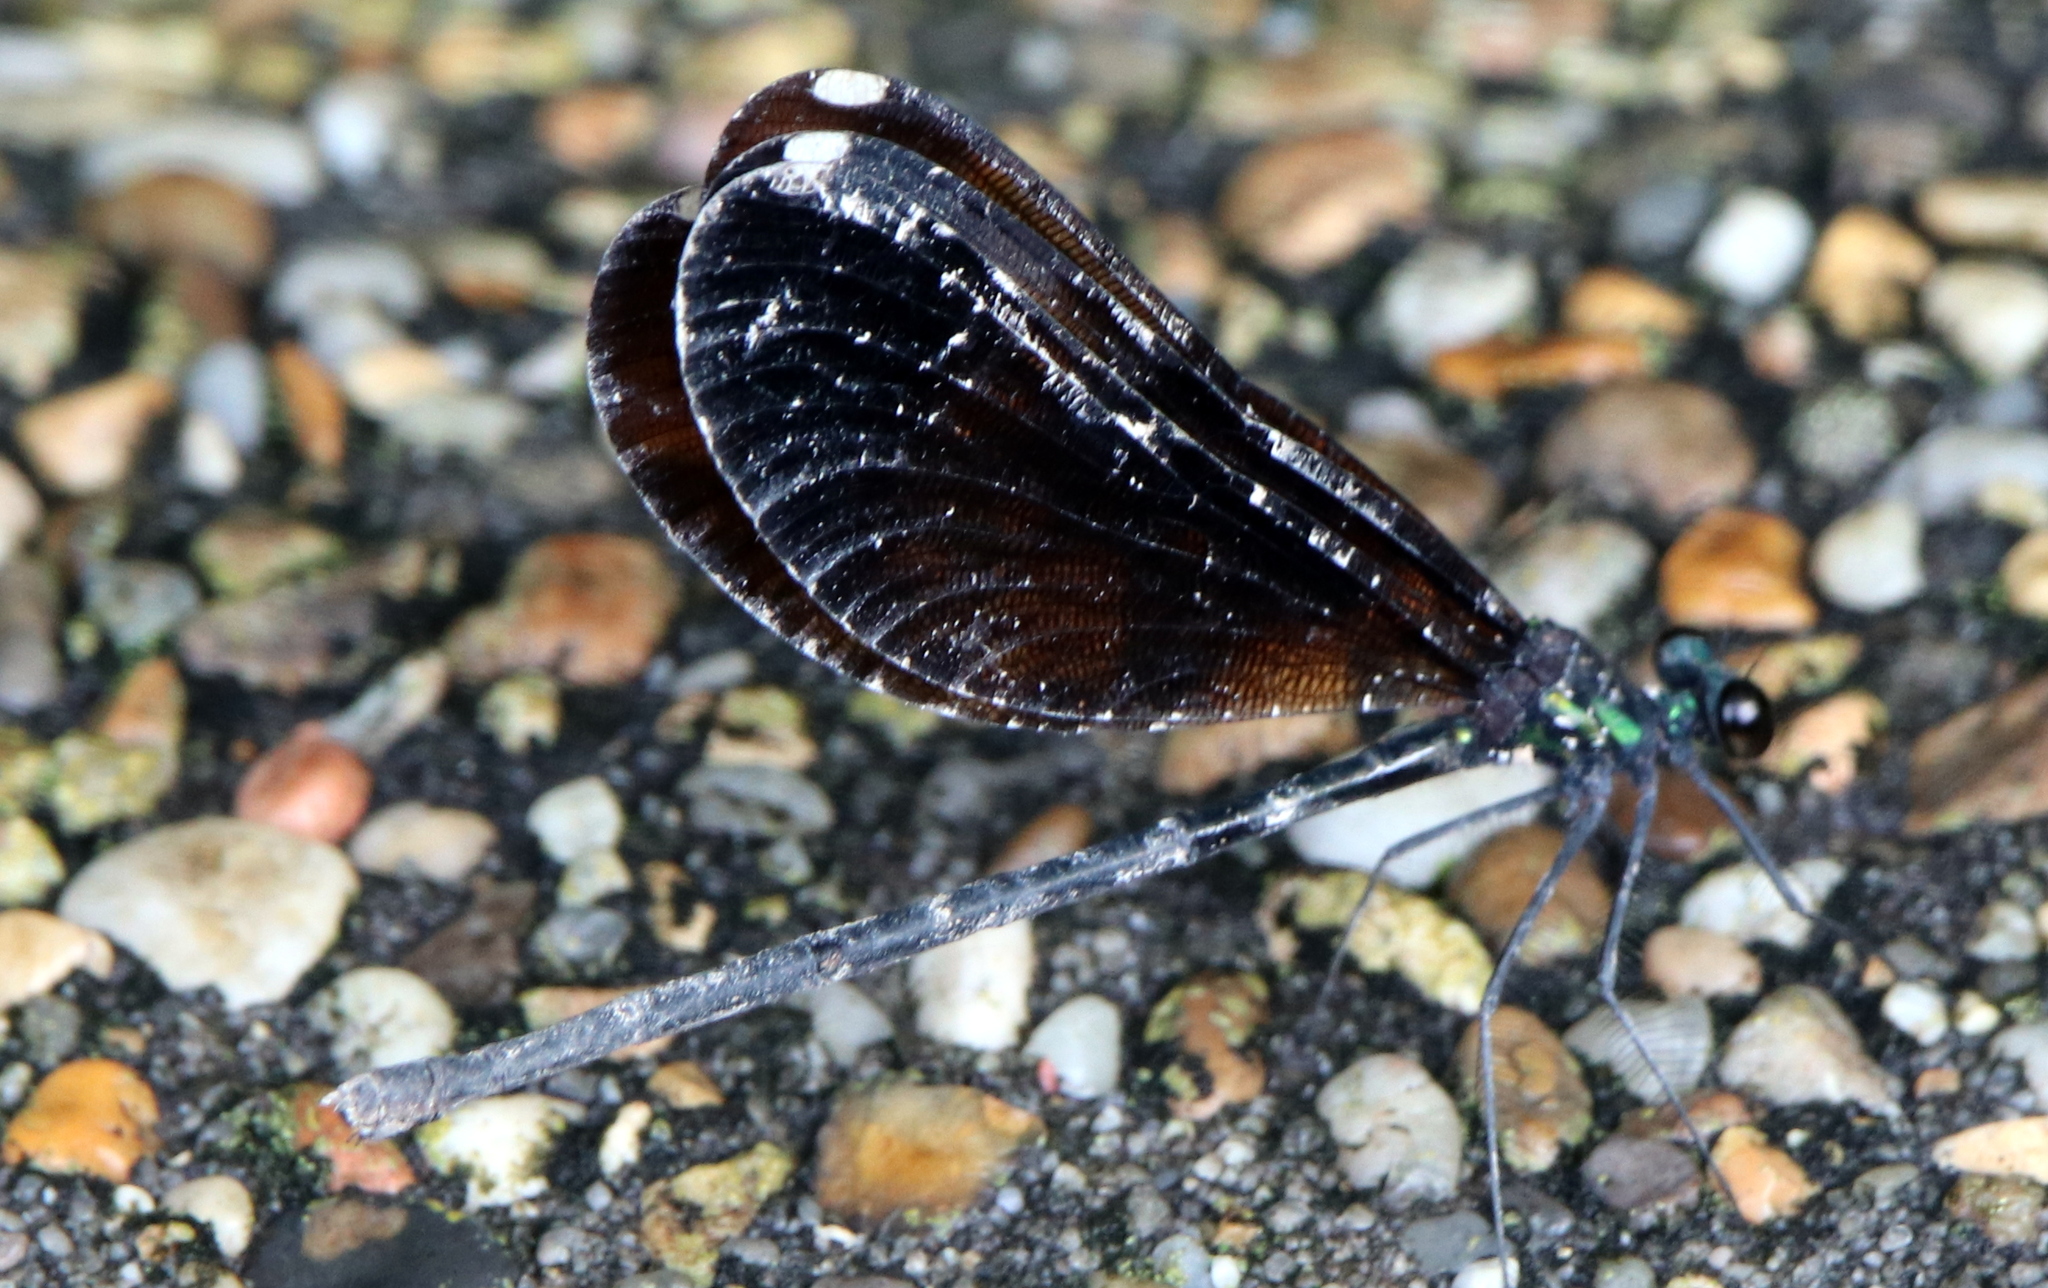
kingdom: Animalia
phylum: Arthropoda
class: Insecta
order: Odonata
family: Calopterygidae
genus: Calopteryx
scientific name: Calopteryx maculata
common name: Ebony jewelwing
